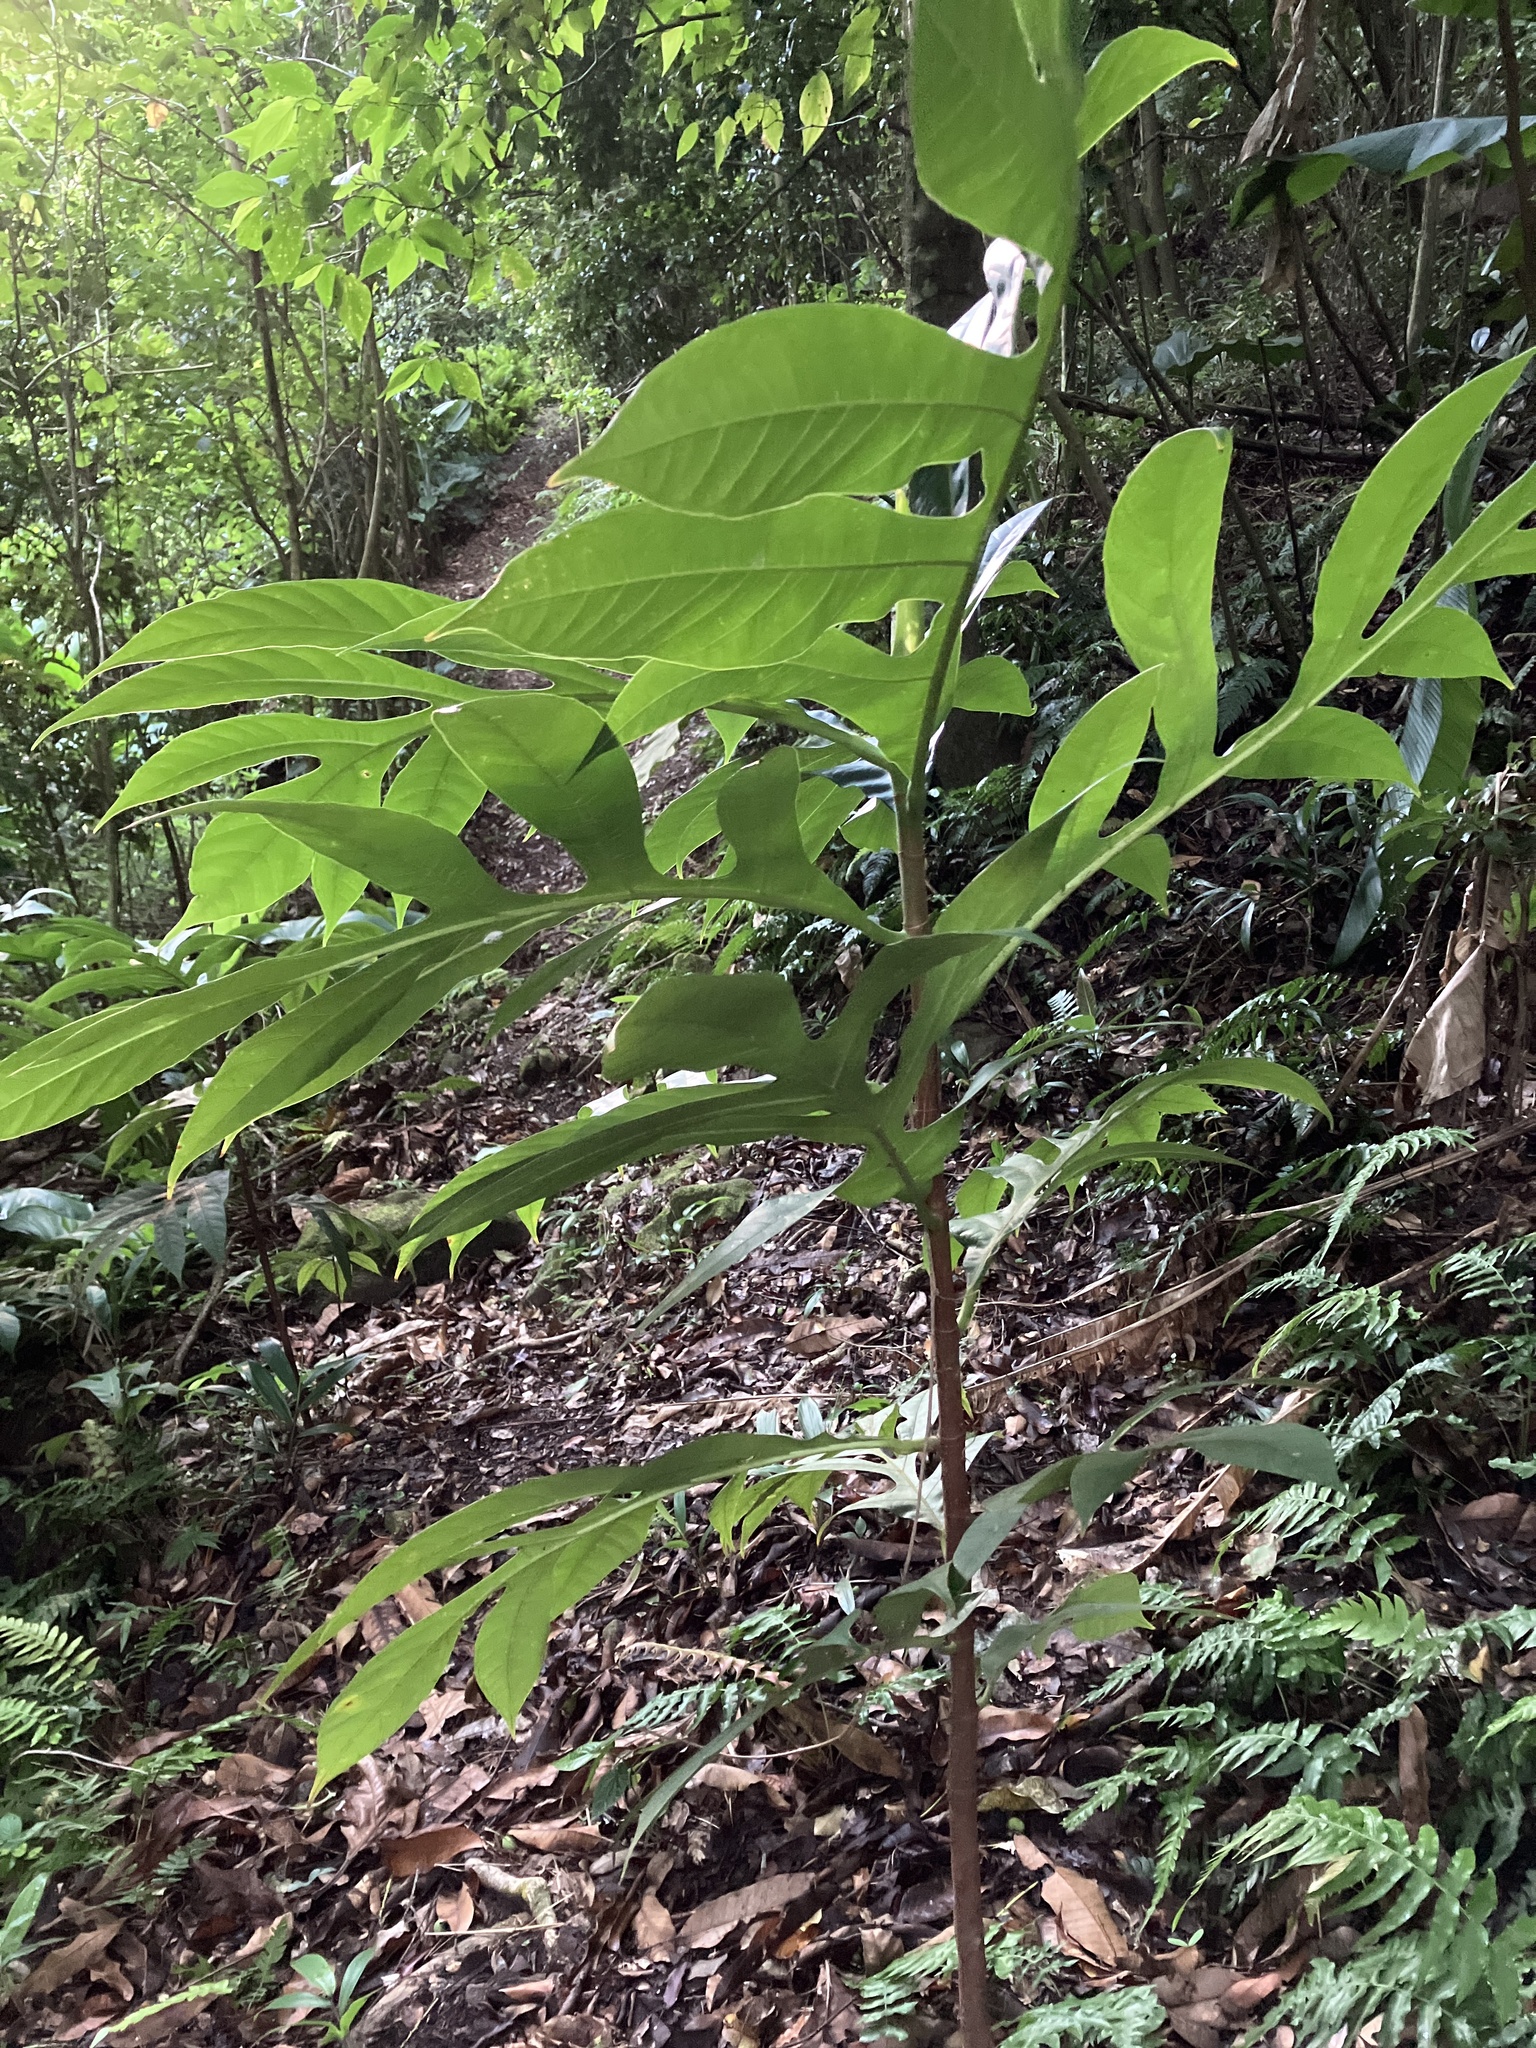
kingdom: Plantae
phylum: Tracheophyta
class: Magnoliopsida
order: Rosales
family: Moraceae
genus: Artocarpus
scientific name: Artocarpus altilis
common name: Breadfruit
